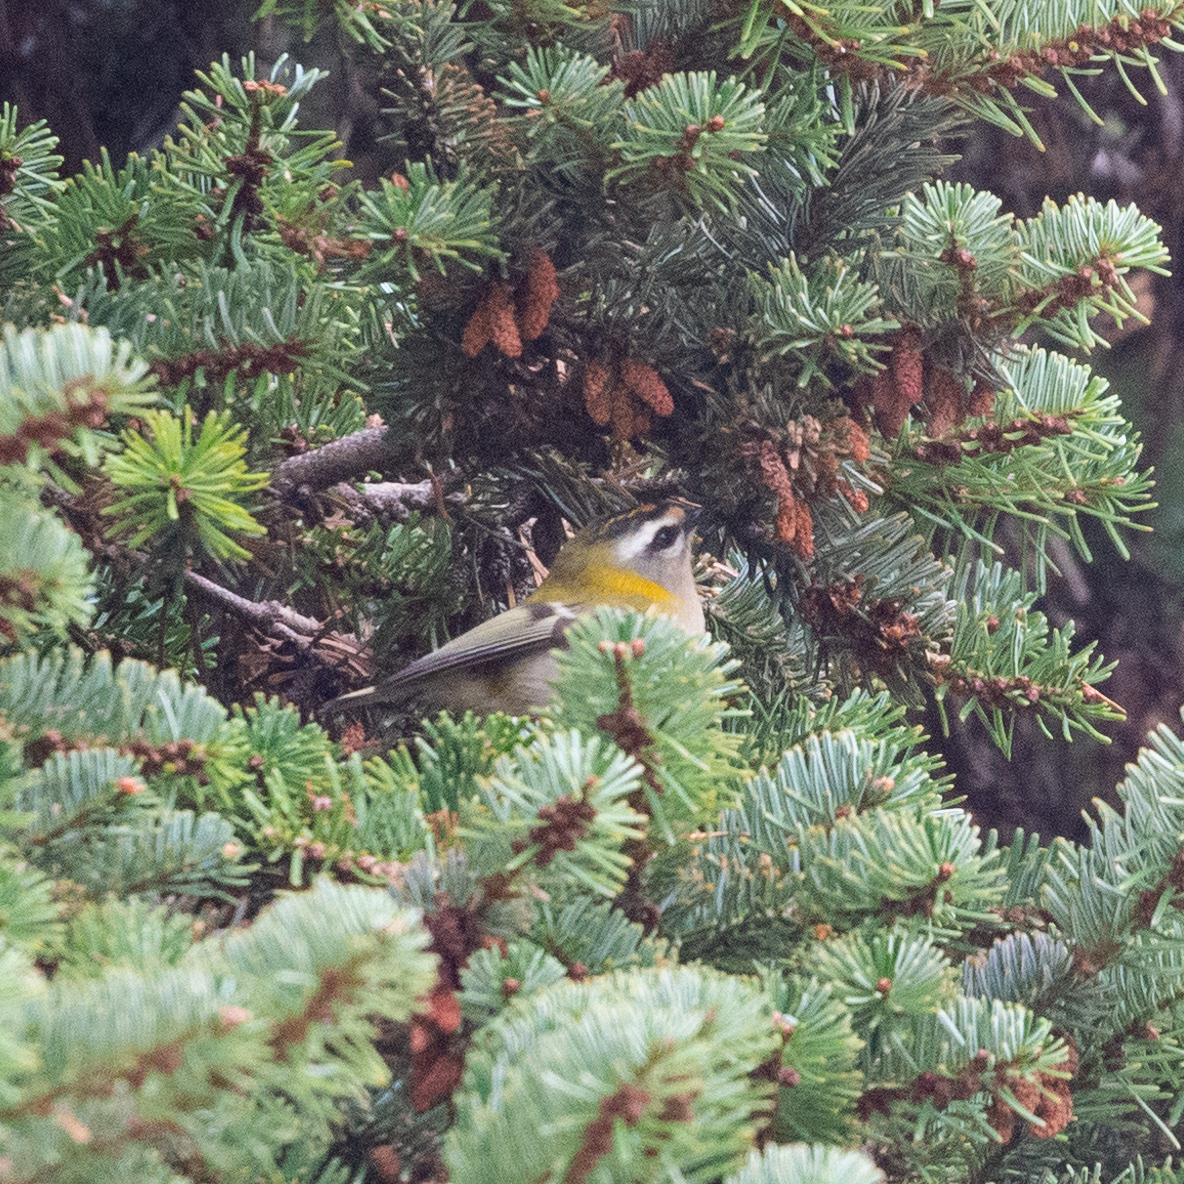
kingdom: Animalia
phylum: Chordata
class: Aves
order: Passeriformes
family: Regulidae
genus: Regulus
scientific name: Regulus ignicapilla
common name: Firecrest
